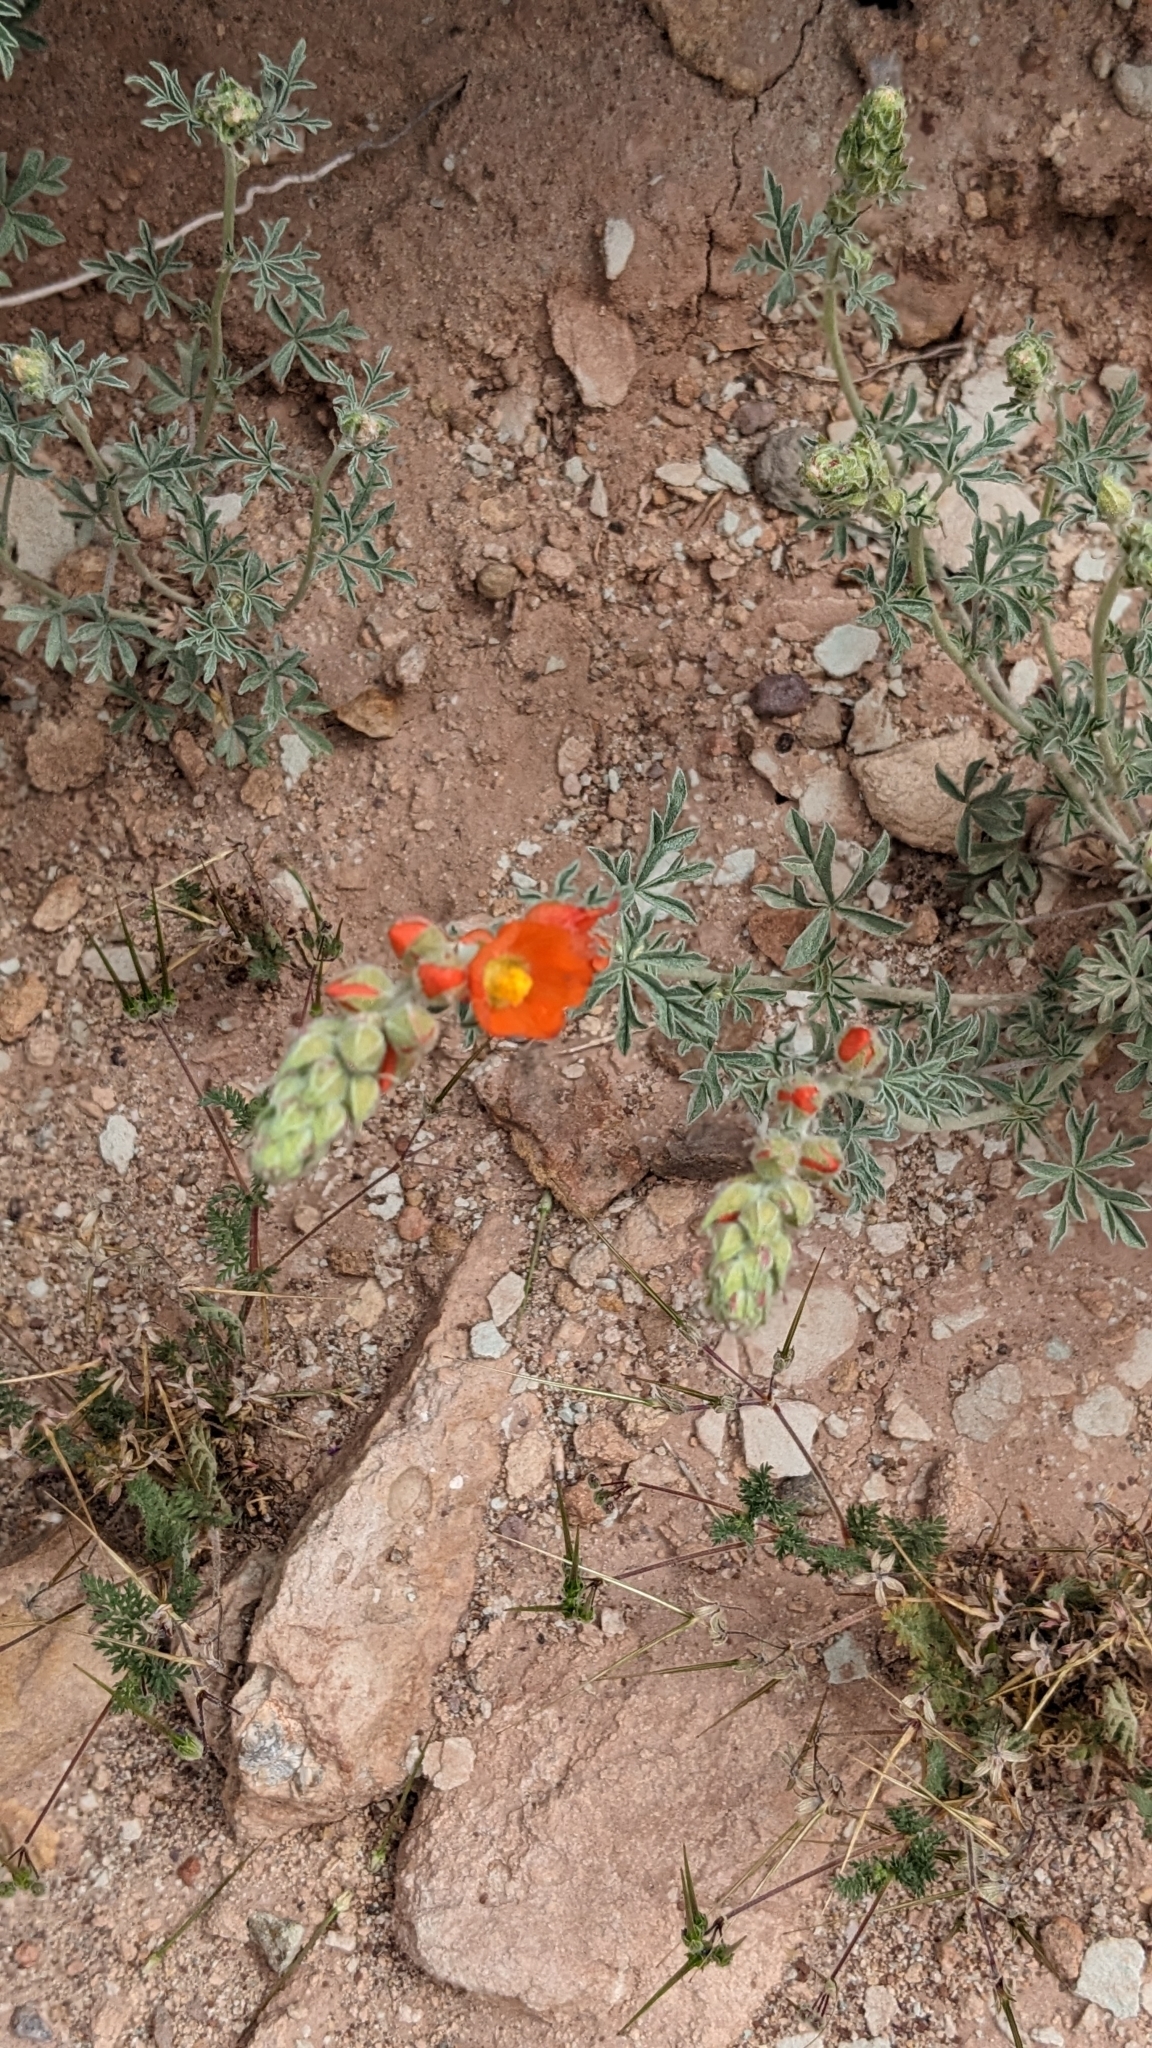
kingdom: Plantae
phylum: Tracheophyta
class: Magnoliopsida
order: Malvales
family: Malvaceae
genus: Sphaeralcea
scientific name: Sphaeralcea coccinea
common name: Moss-rose
